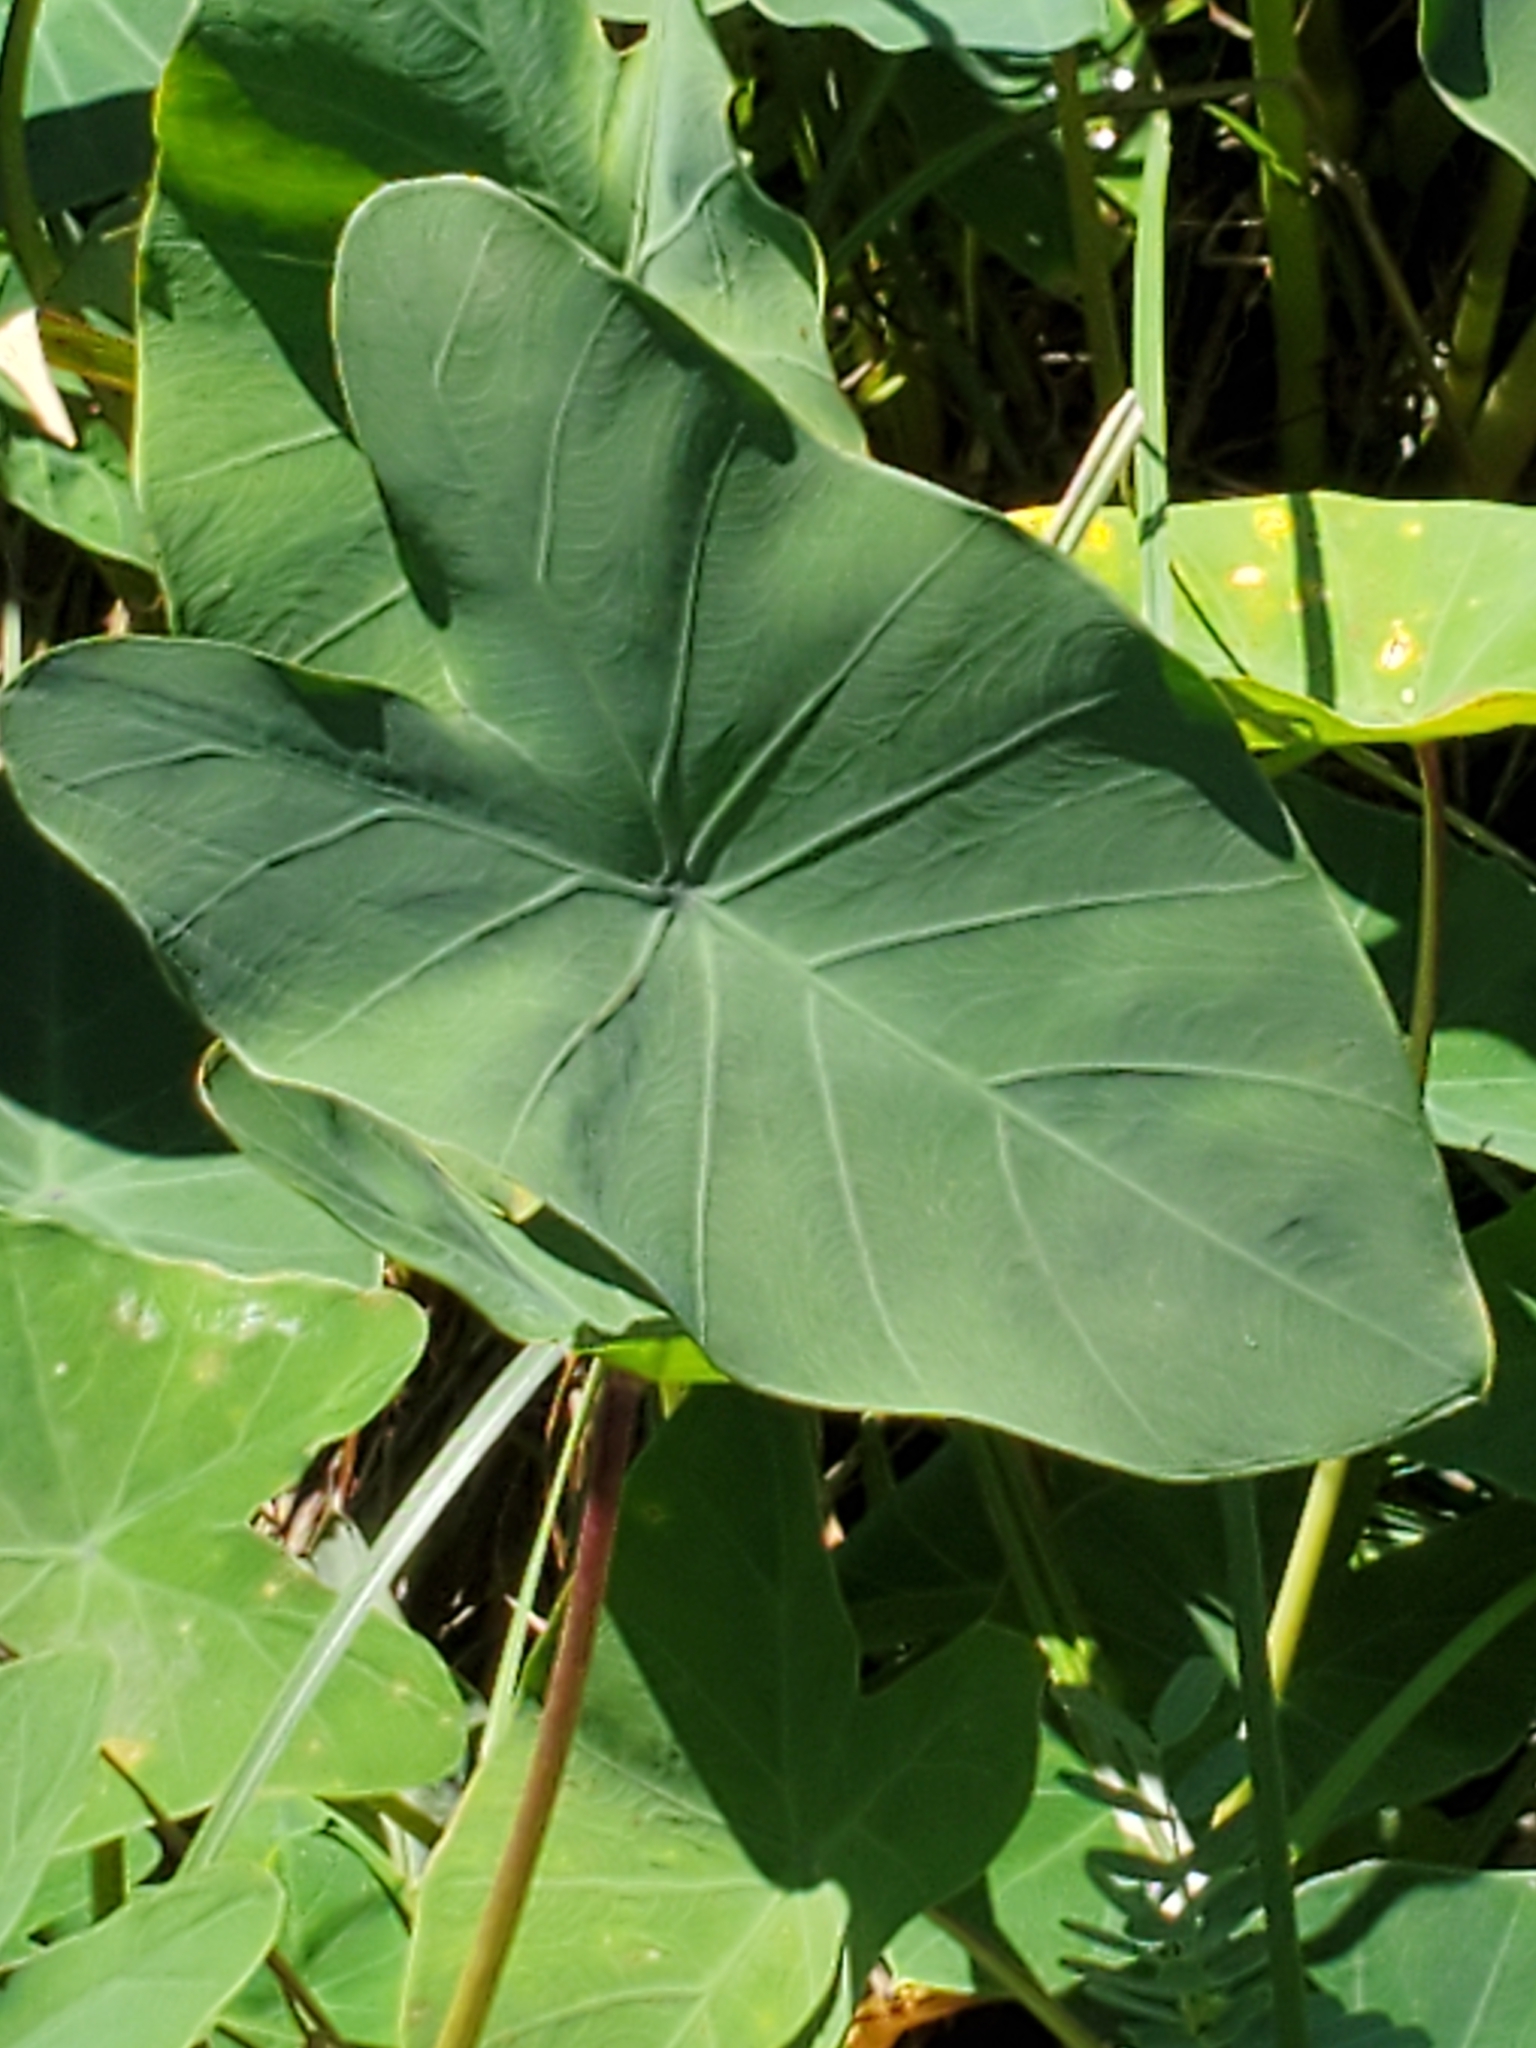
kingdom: Plantae
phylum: Tracheophyta
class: Liliopsida
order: Alismatales
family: Araceae
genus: Colocasia
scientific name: Colocasia esculenta
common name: Taro
